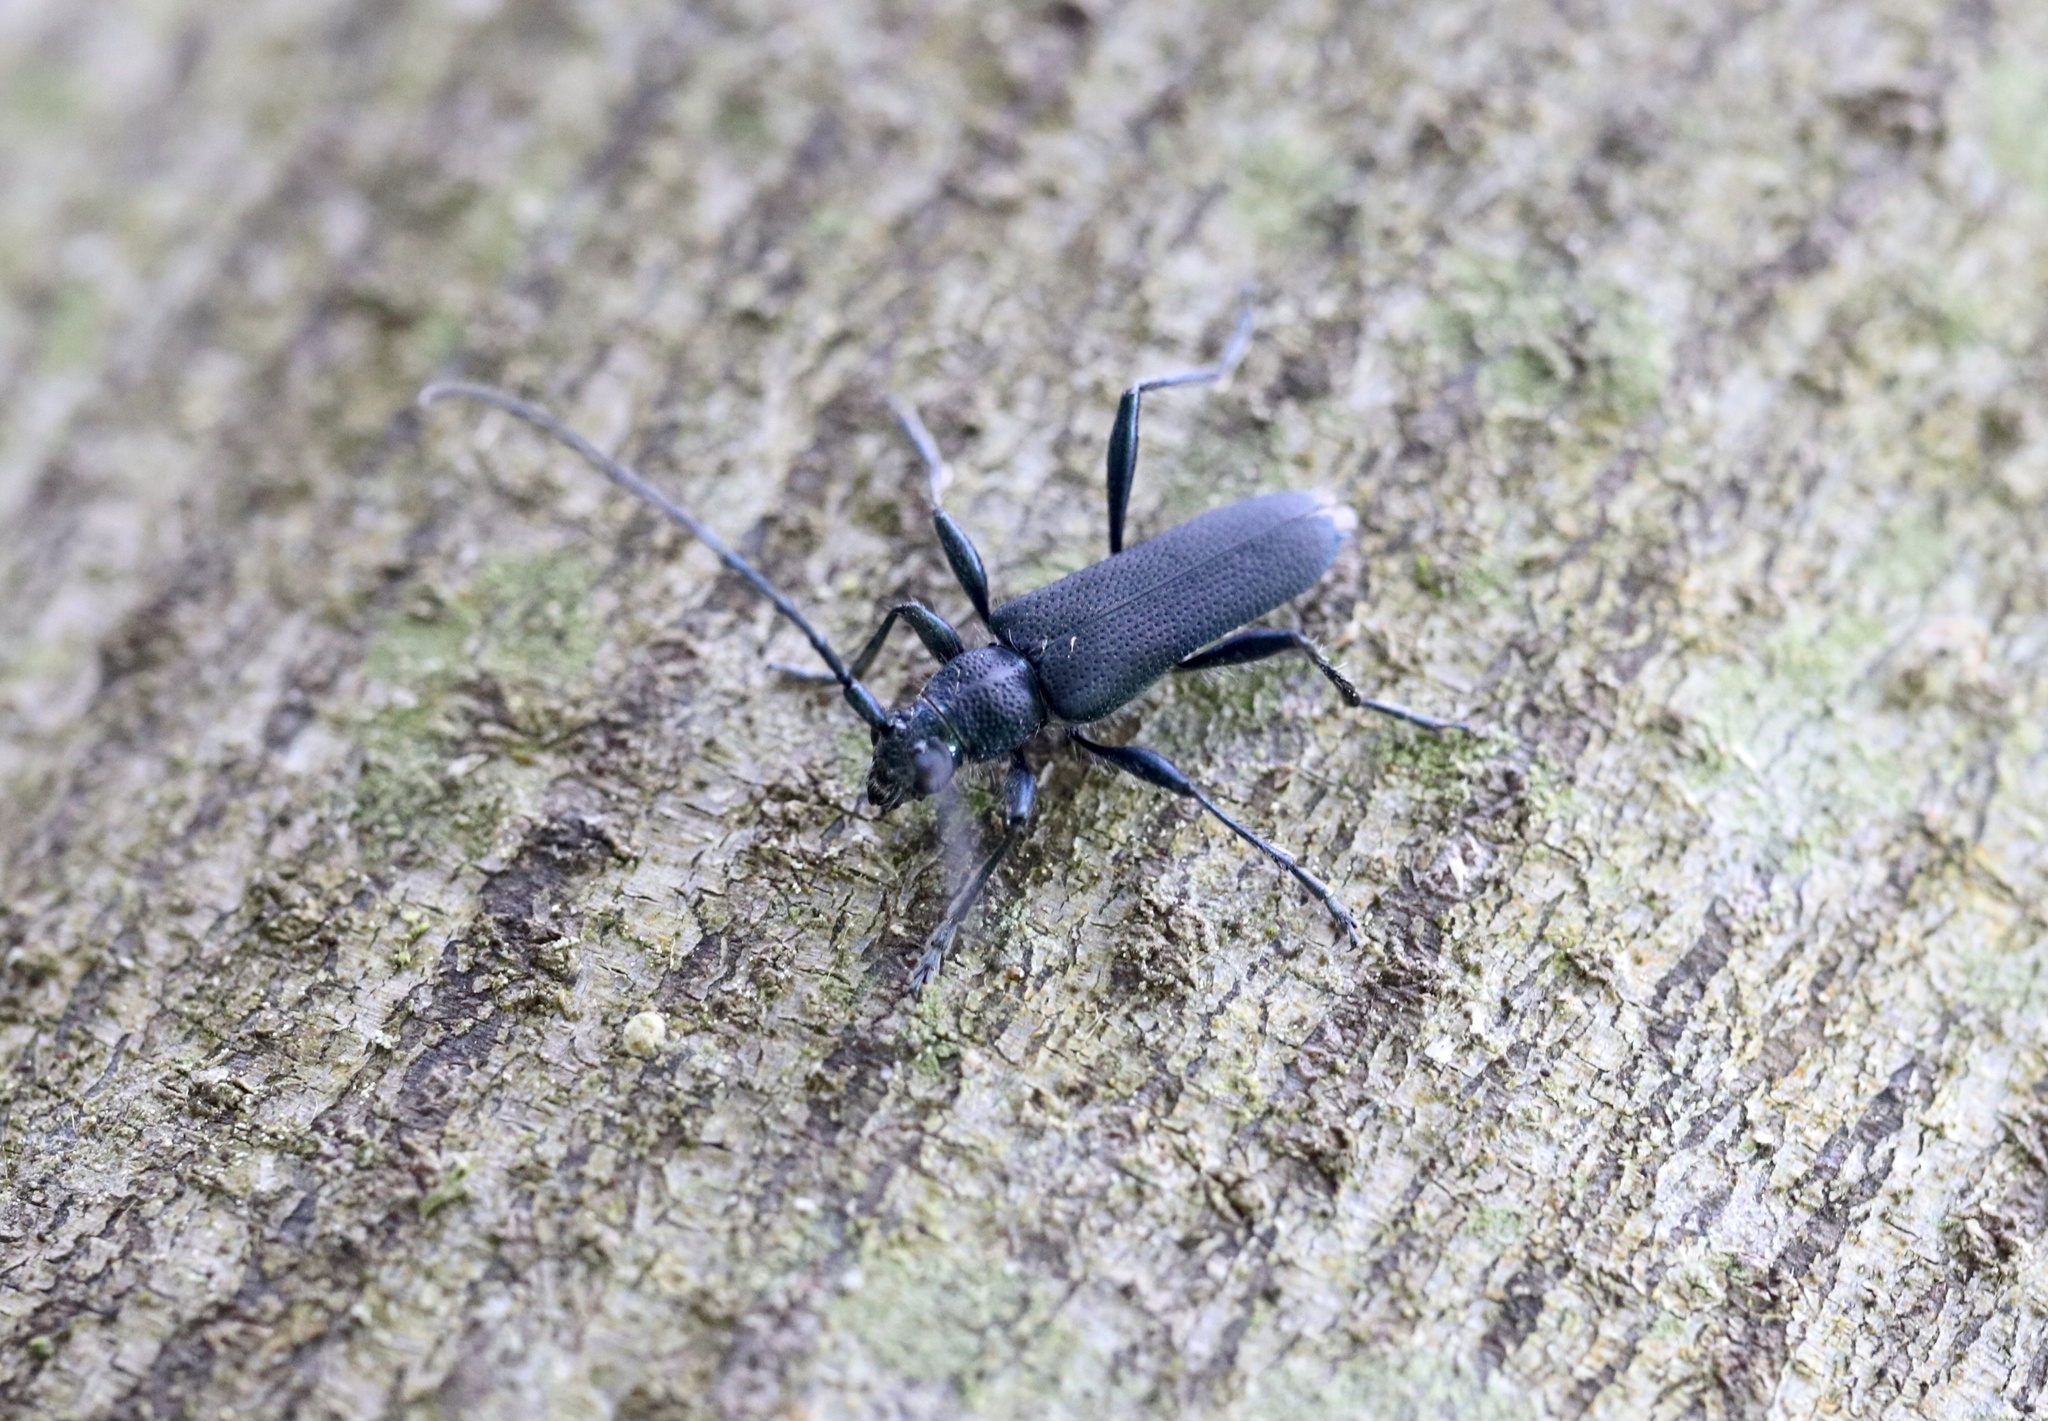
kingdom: Animalia
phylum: Arthropoda
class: Insecta
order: Coleoptera
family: Cerambycidae
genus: Eryphus
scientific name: Eryphus laetus
